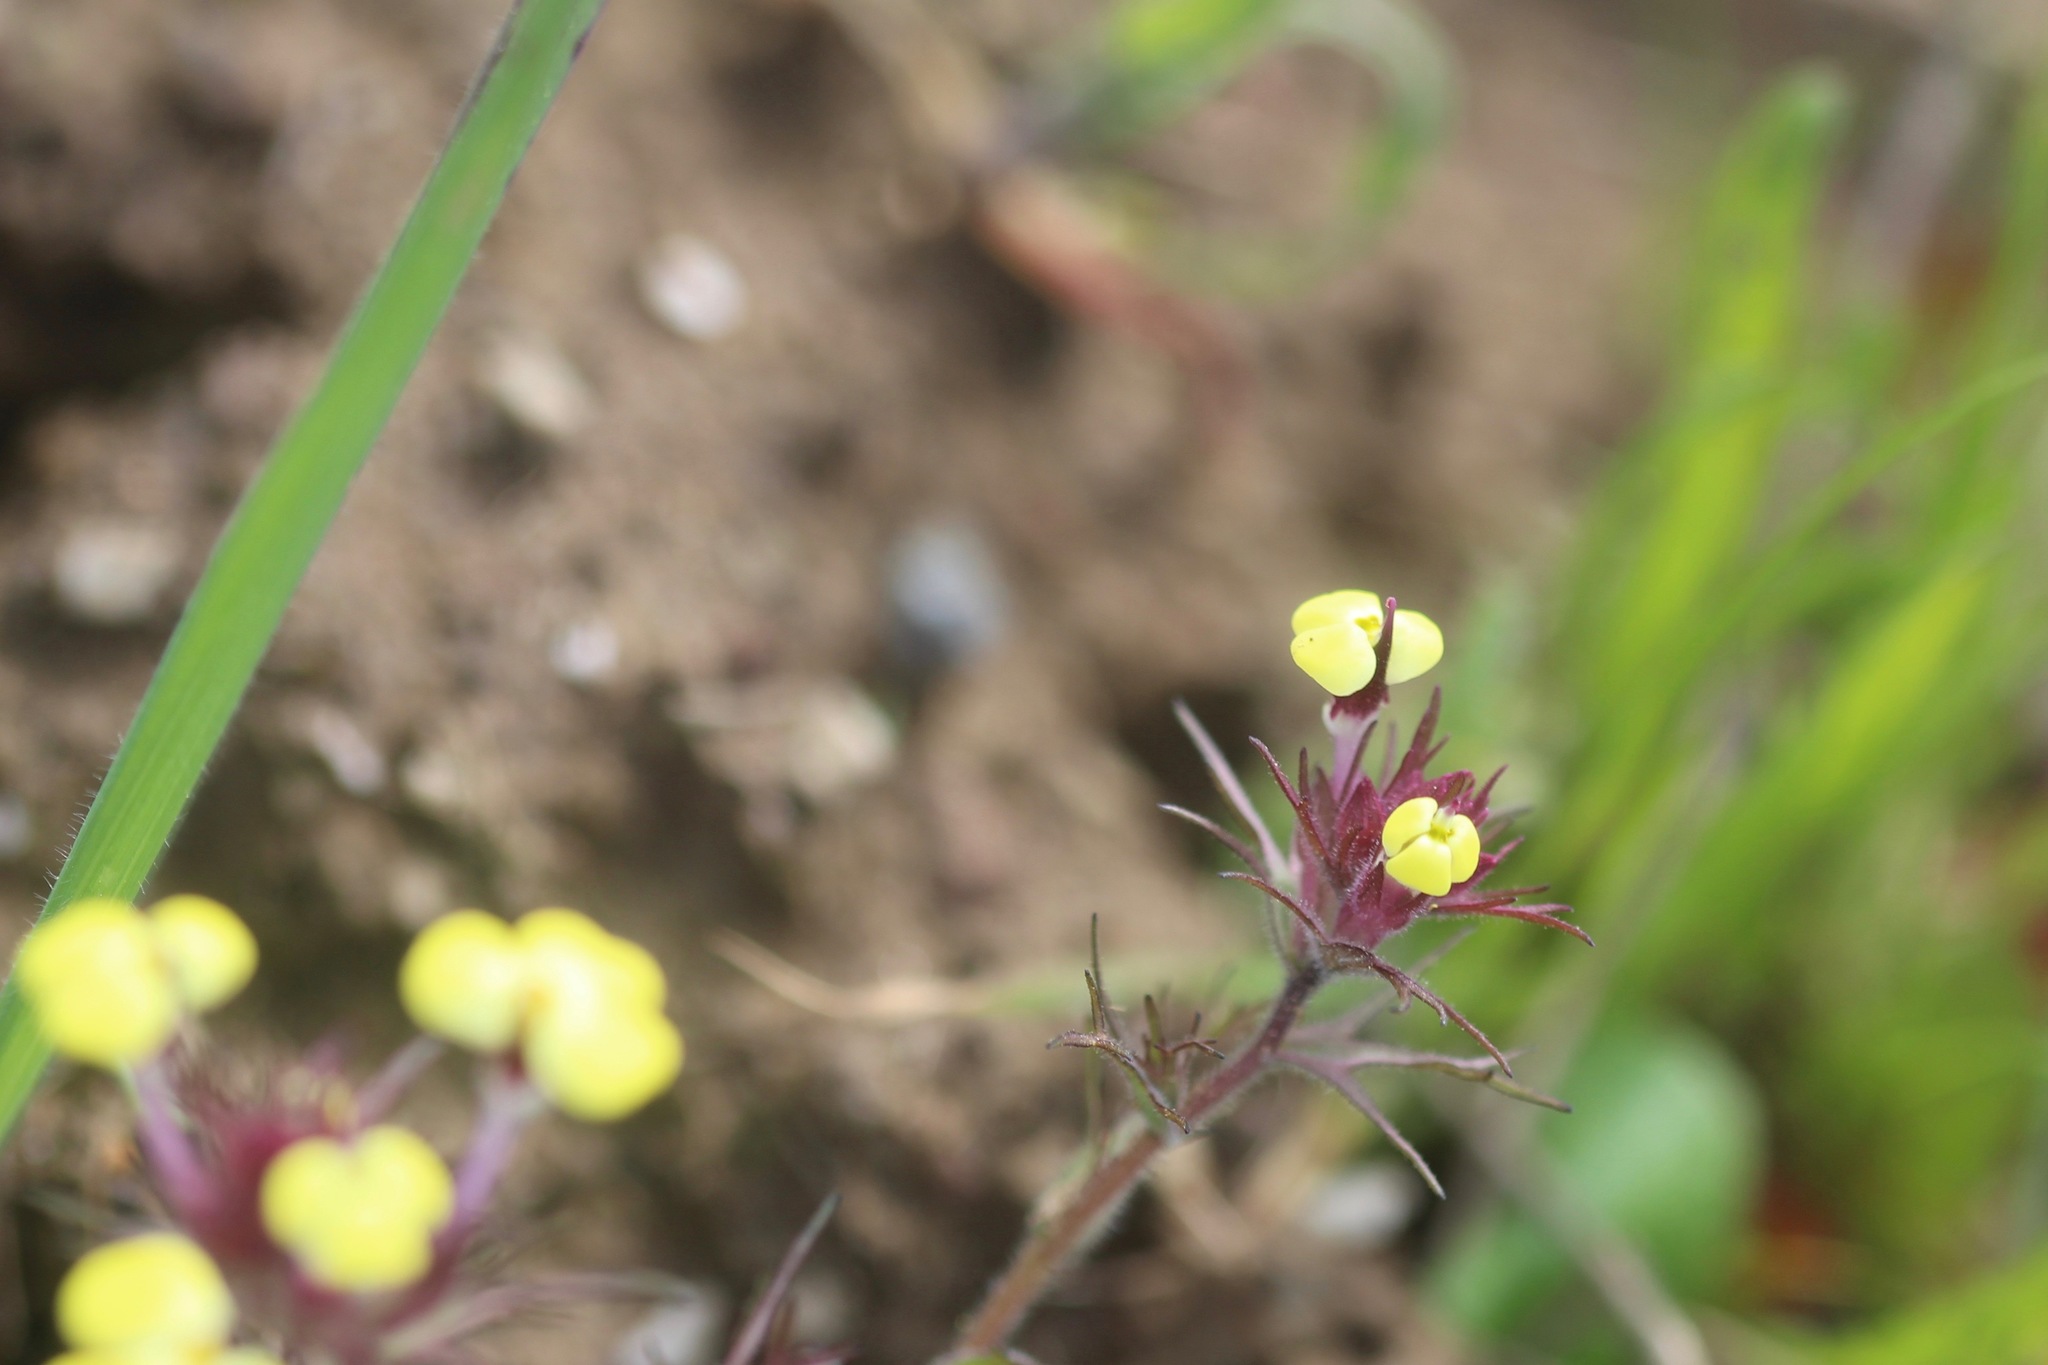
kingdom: Plantae
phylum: Tracheophyta
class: Magnoliopsida
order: Lamiales
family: Orobanchaceae
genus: Triphysaria
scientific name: Triphysaria eriantha
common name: Johnny-tuck
